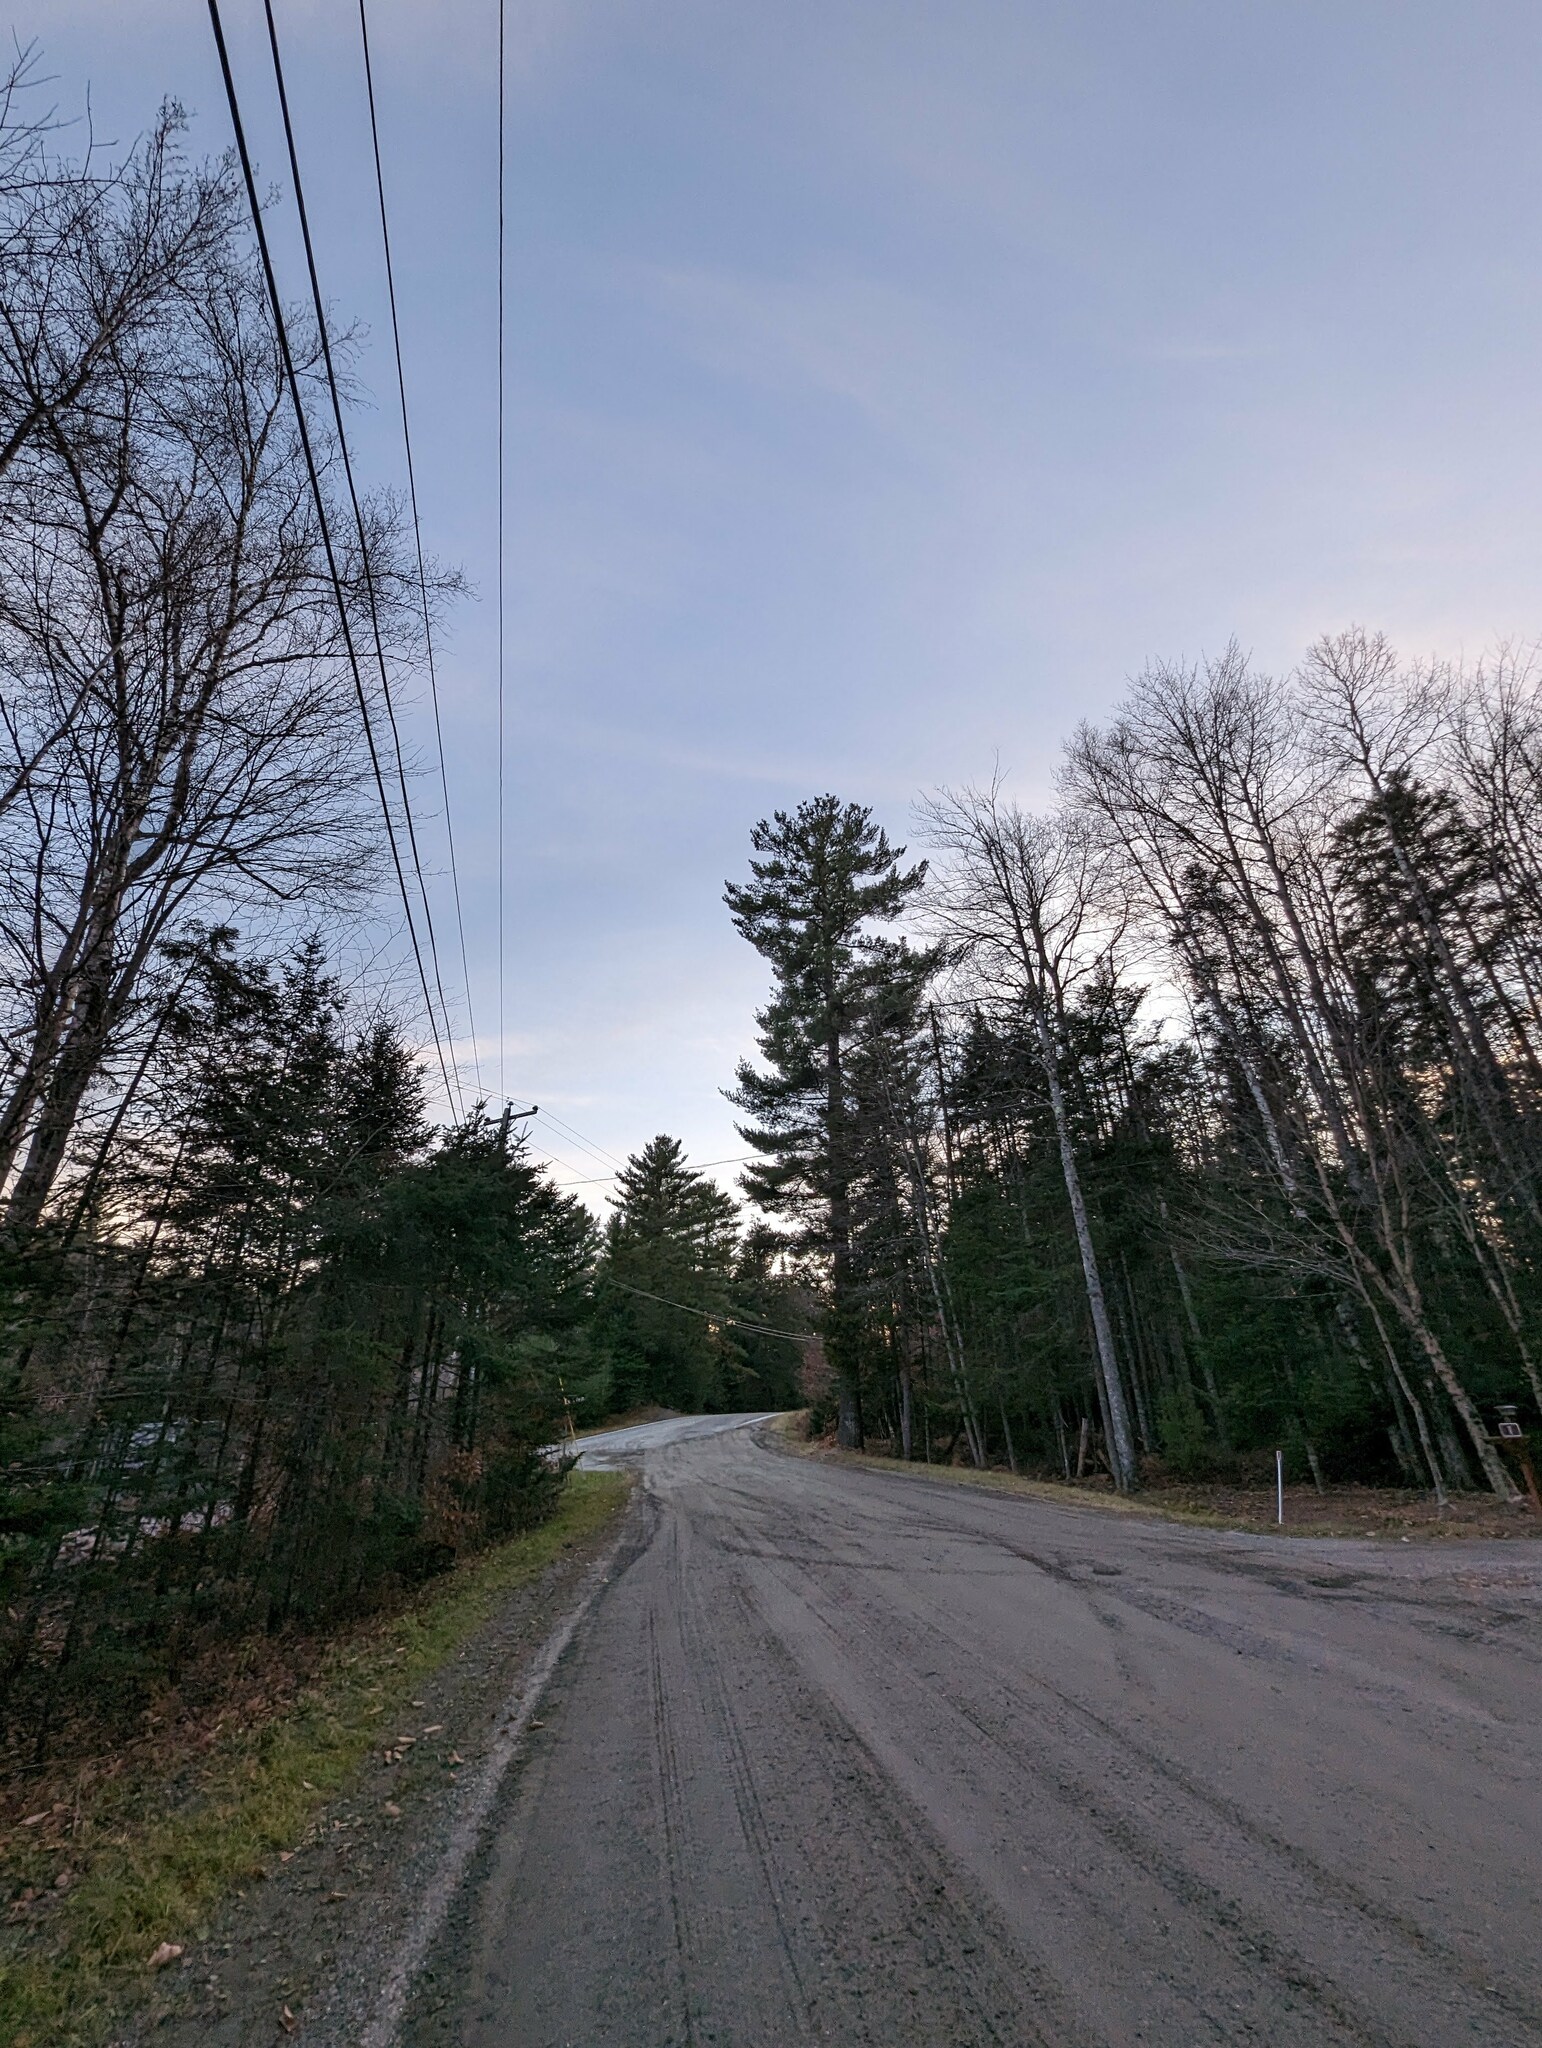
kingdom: Plantae
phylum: Tracheophyta
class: Pinopsida
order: Pinales
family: Pinaceae
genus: Pinus
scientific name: Pinus strobus
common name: Weymouth pine
